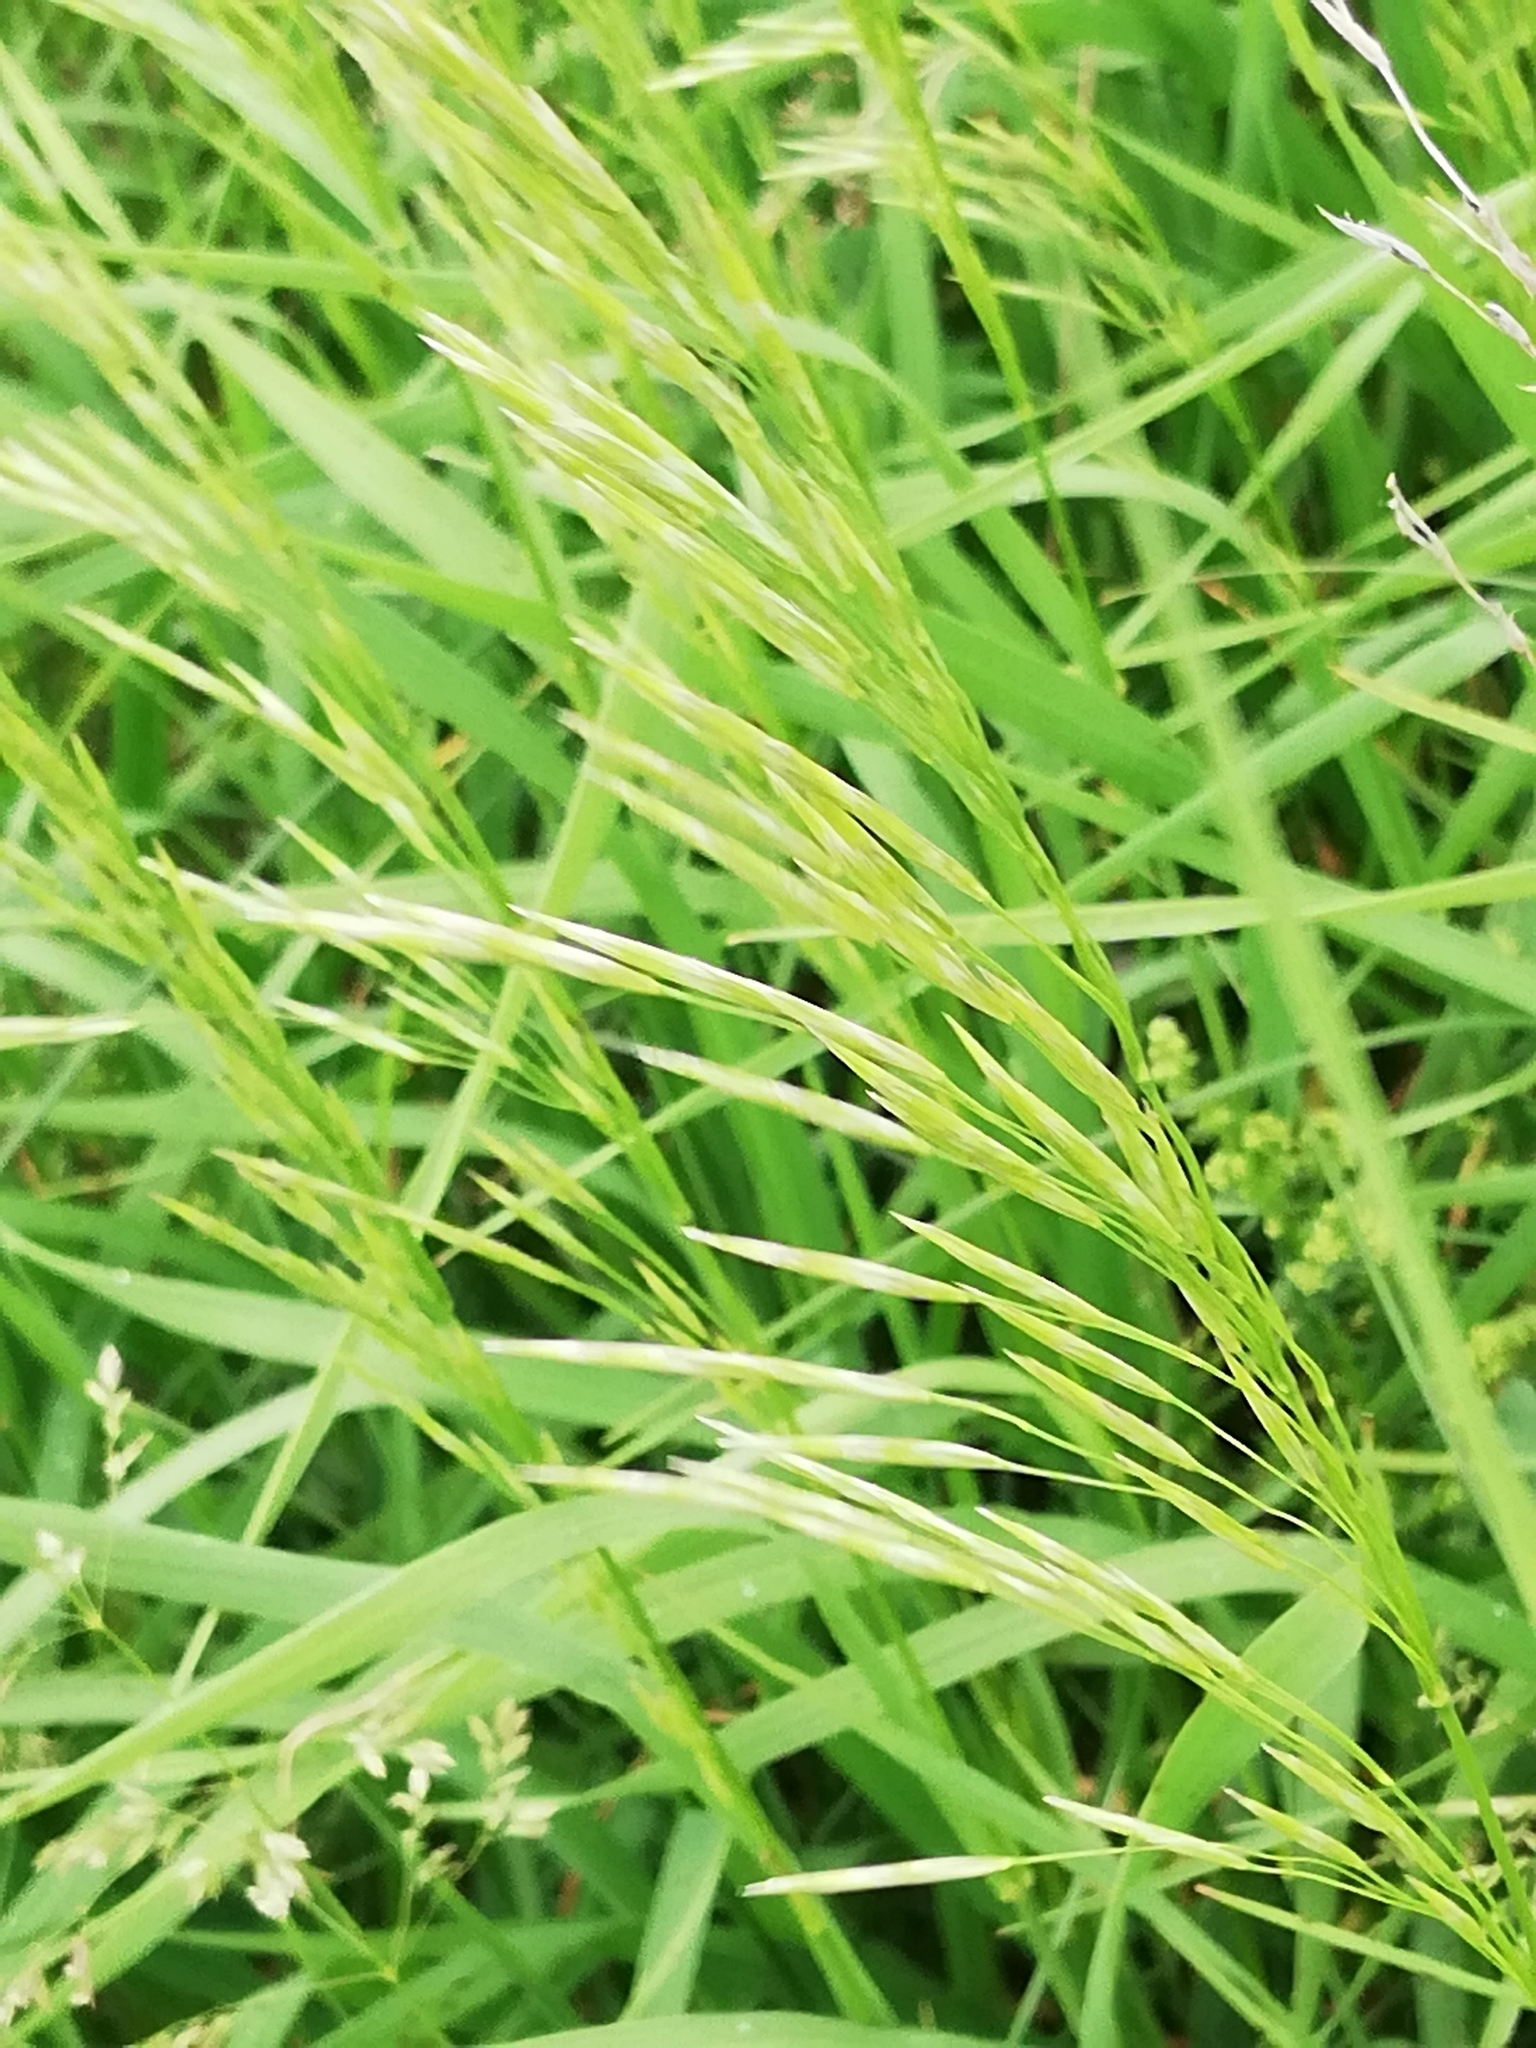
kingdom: Plantae
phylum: Tracheophyta
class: Liliopsida
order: Poales
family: Poaceae
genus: Bromus
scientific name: Bromus inermis
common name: Smooth brome
